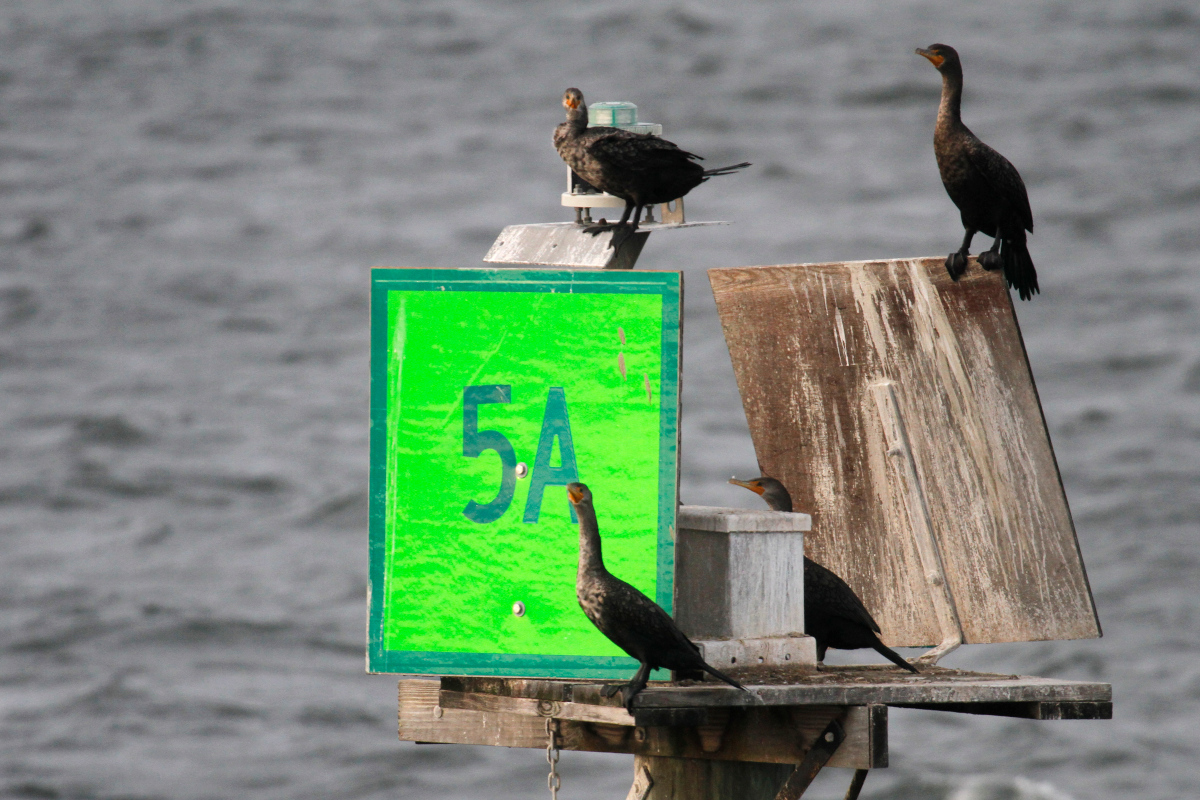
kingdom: Animalia
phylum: Chordata
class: Aves
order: Suliformes
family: Phalacrocoracidae
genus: Phalacrocorax
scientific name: Phalacrocorax auritus
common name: Double-crested cormorant
